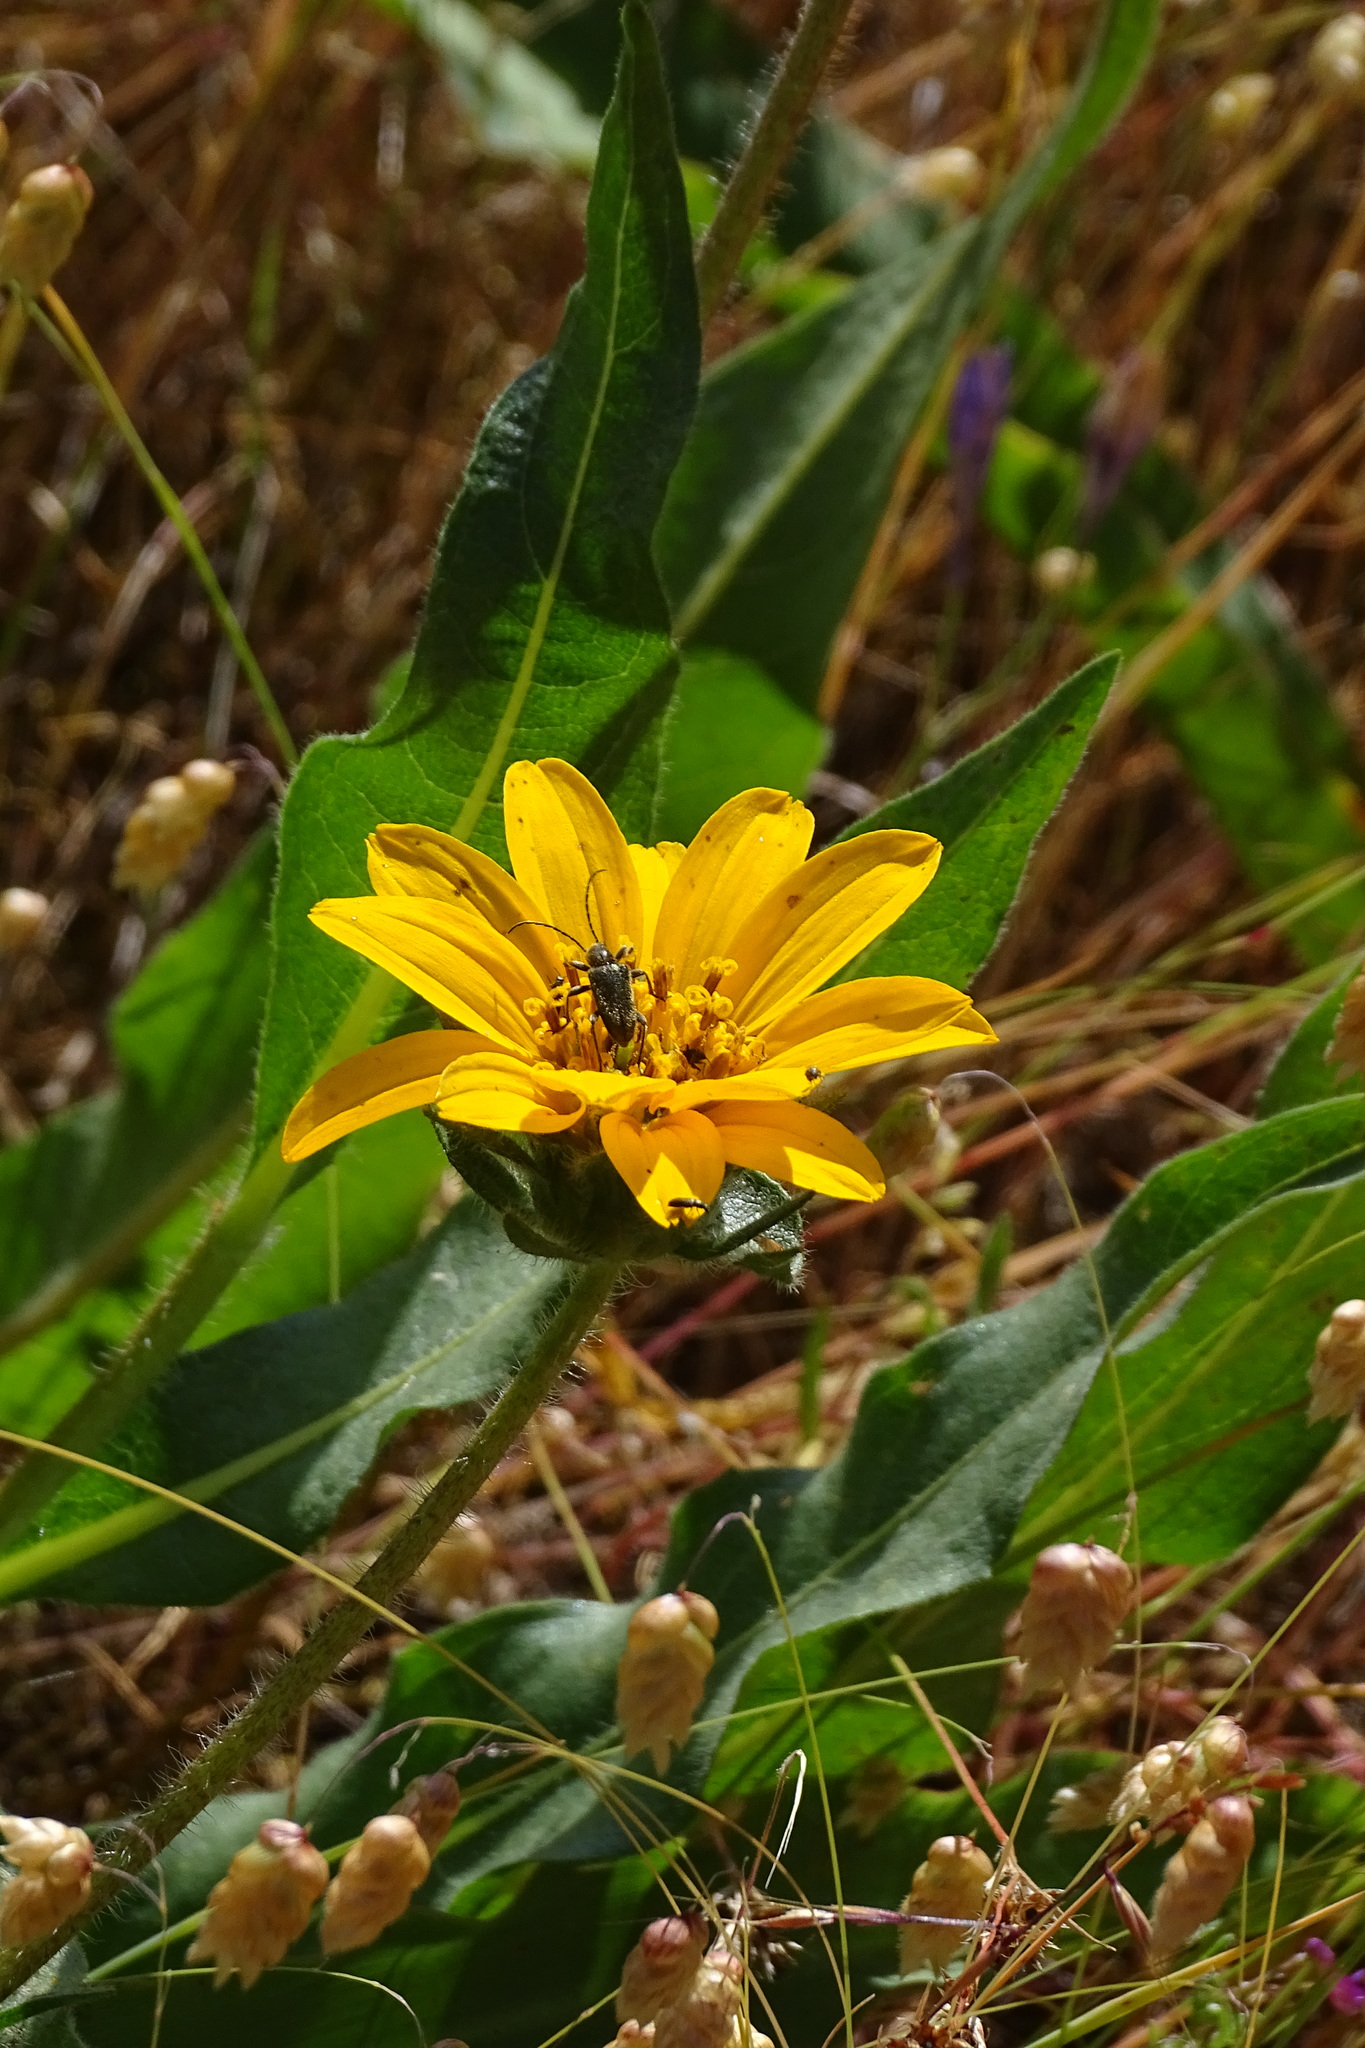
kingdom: Plantae
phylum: Tracheophyta
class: Magnoliopsida
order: Asterales
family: Asteraceae
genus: Wyethia
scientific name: Wyethia angustifolia
